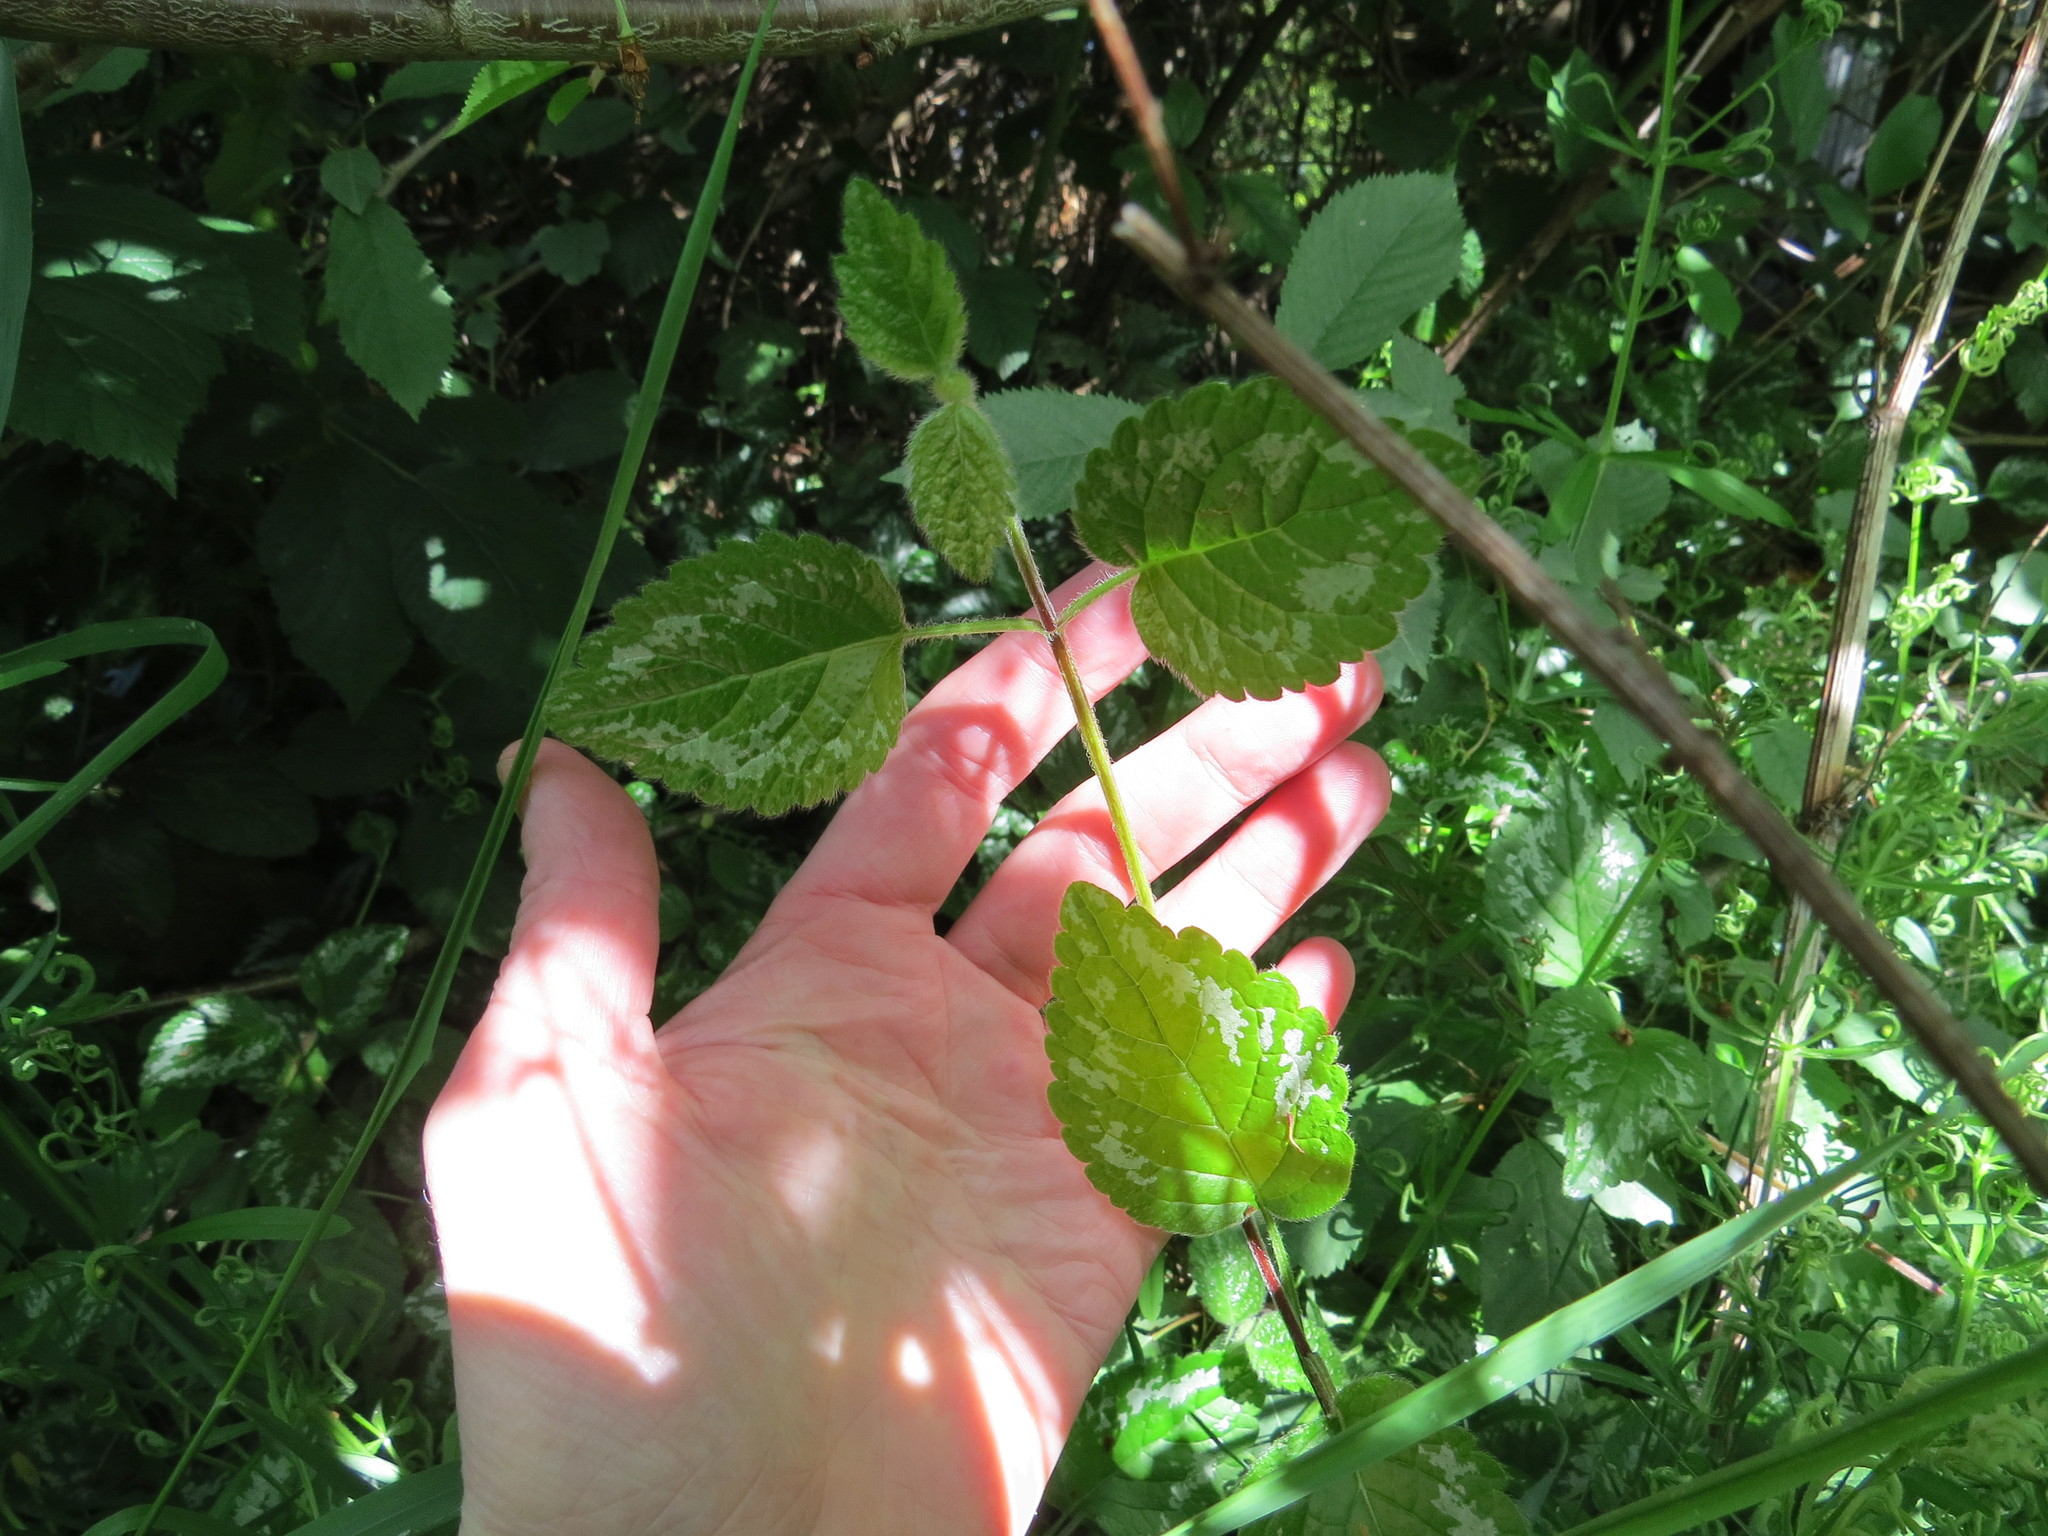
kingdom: Plantae
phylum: Tracheophyta
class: Magnoliopsida
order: Lamiales
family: Lamiaceae
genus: Lamium
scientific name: Lamium galeobdolon
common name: Yellow archangel
